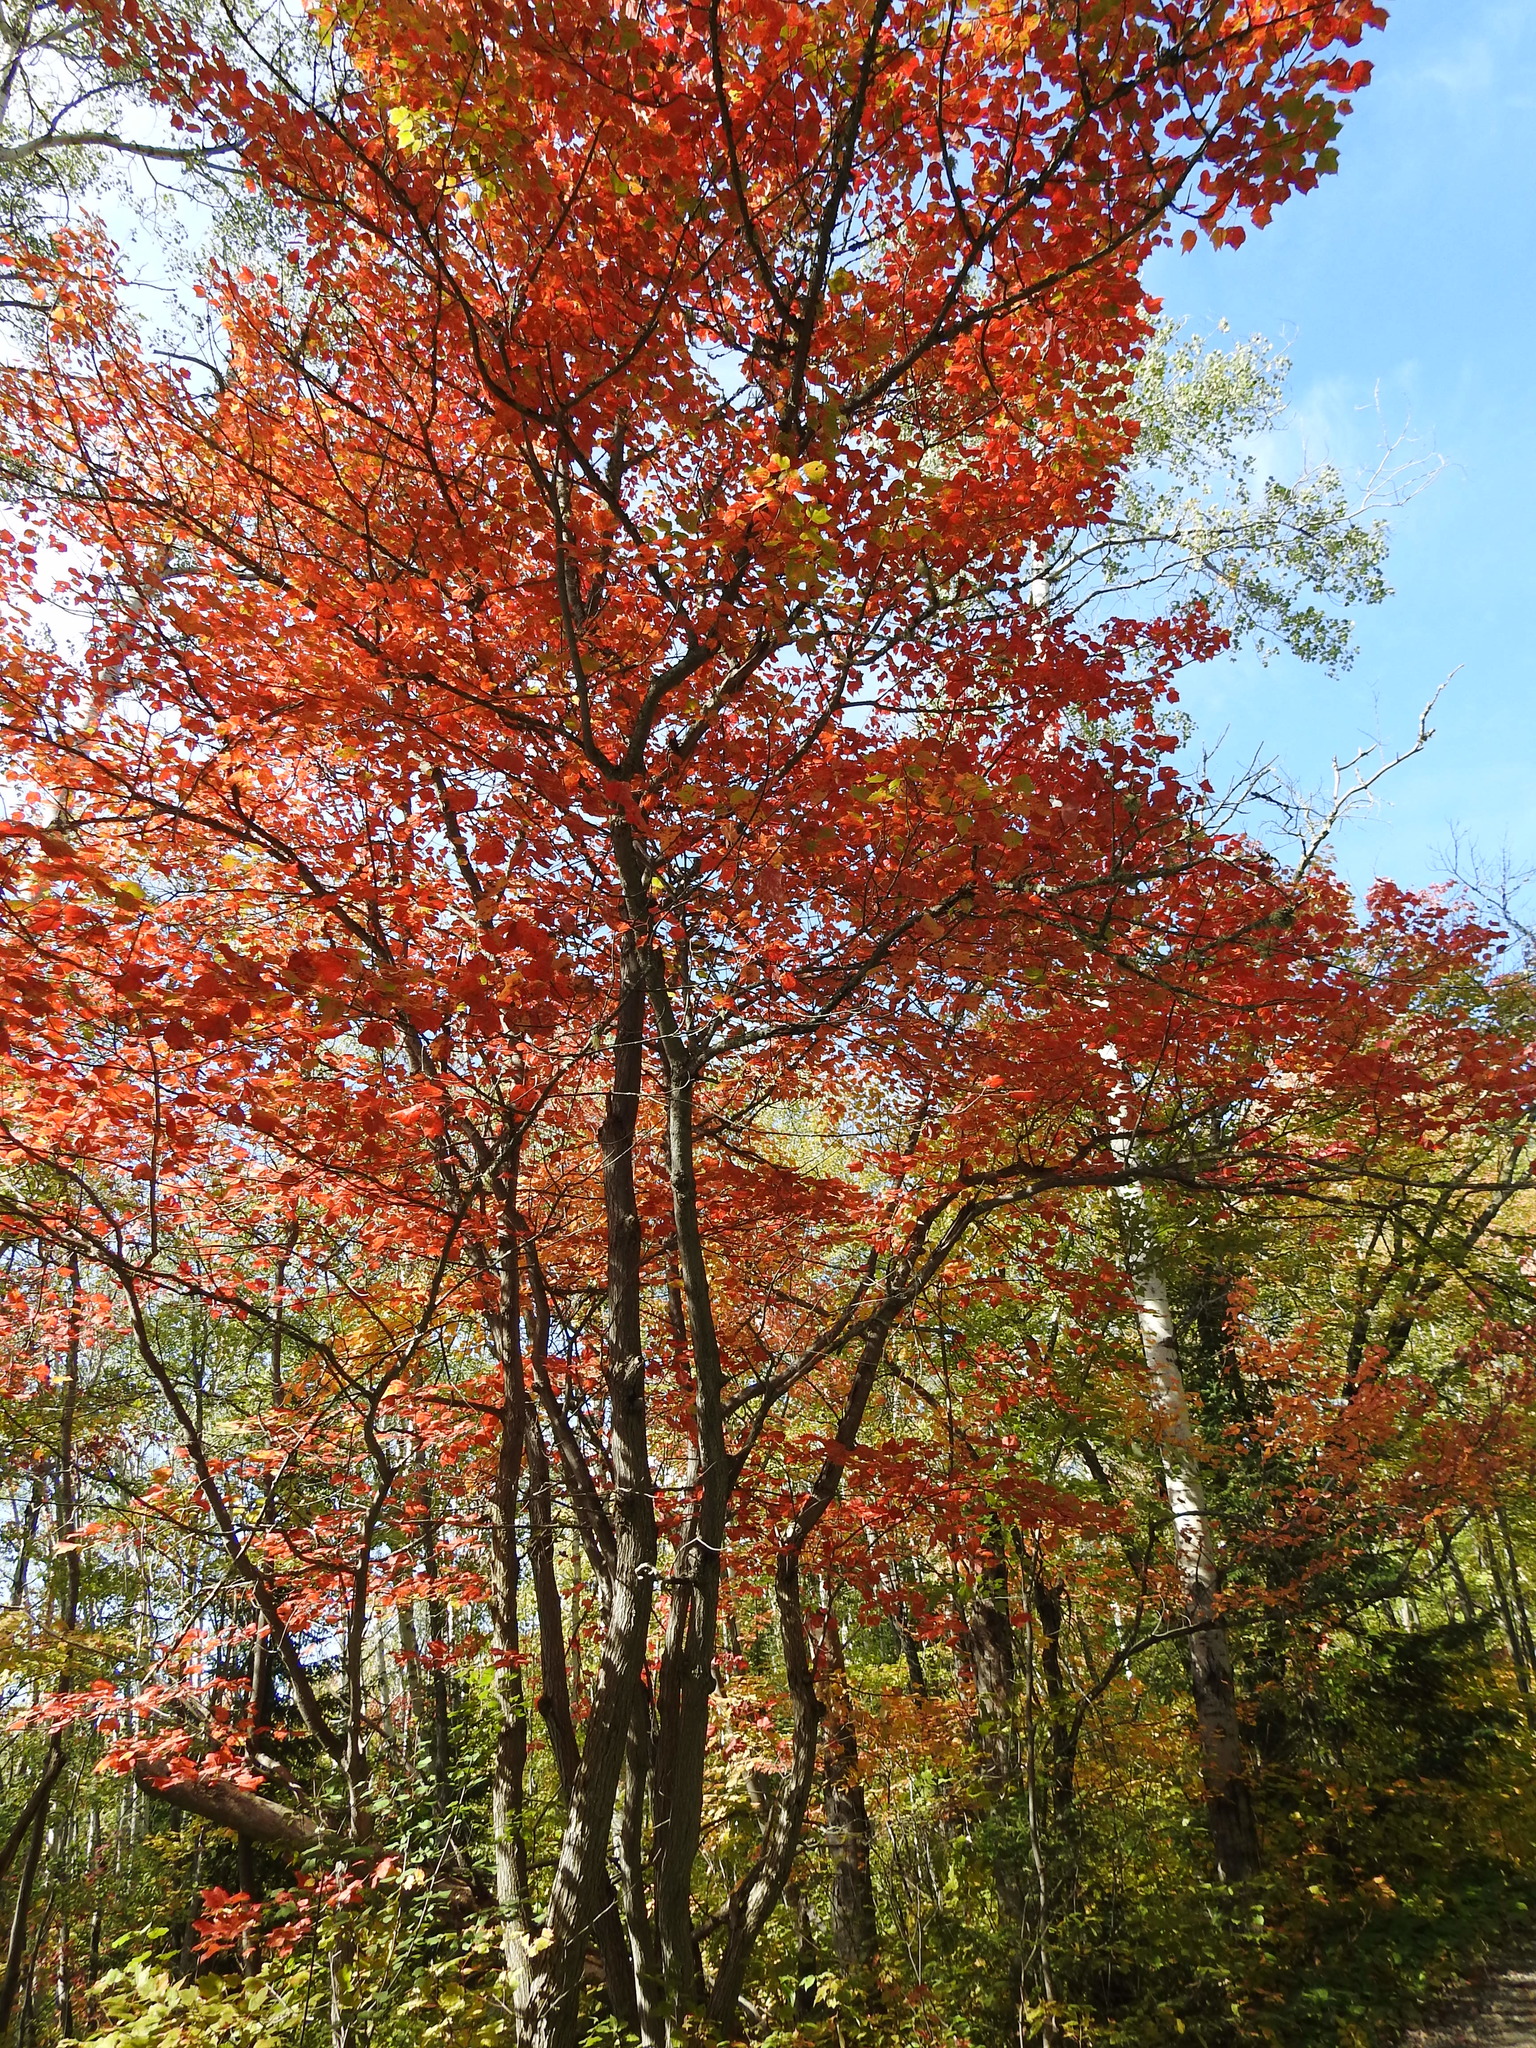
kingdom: Plantae
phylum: Tracheophyta
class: Magnoliopsida
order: Sapindales
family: Sapindaceae
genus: Acer
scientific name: Acer rubrum
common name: Red maple
